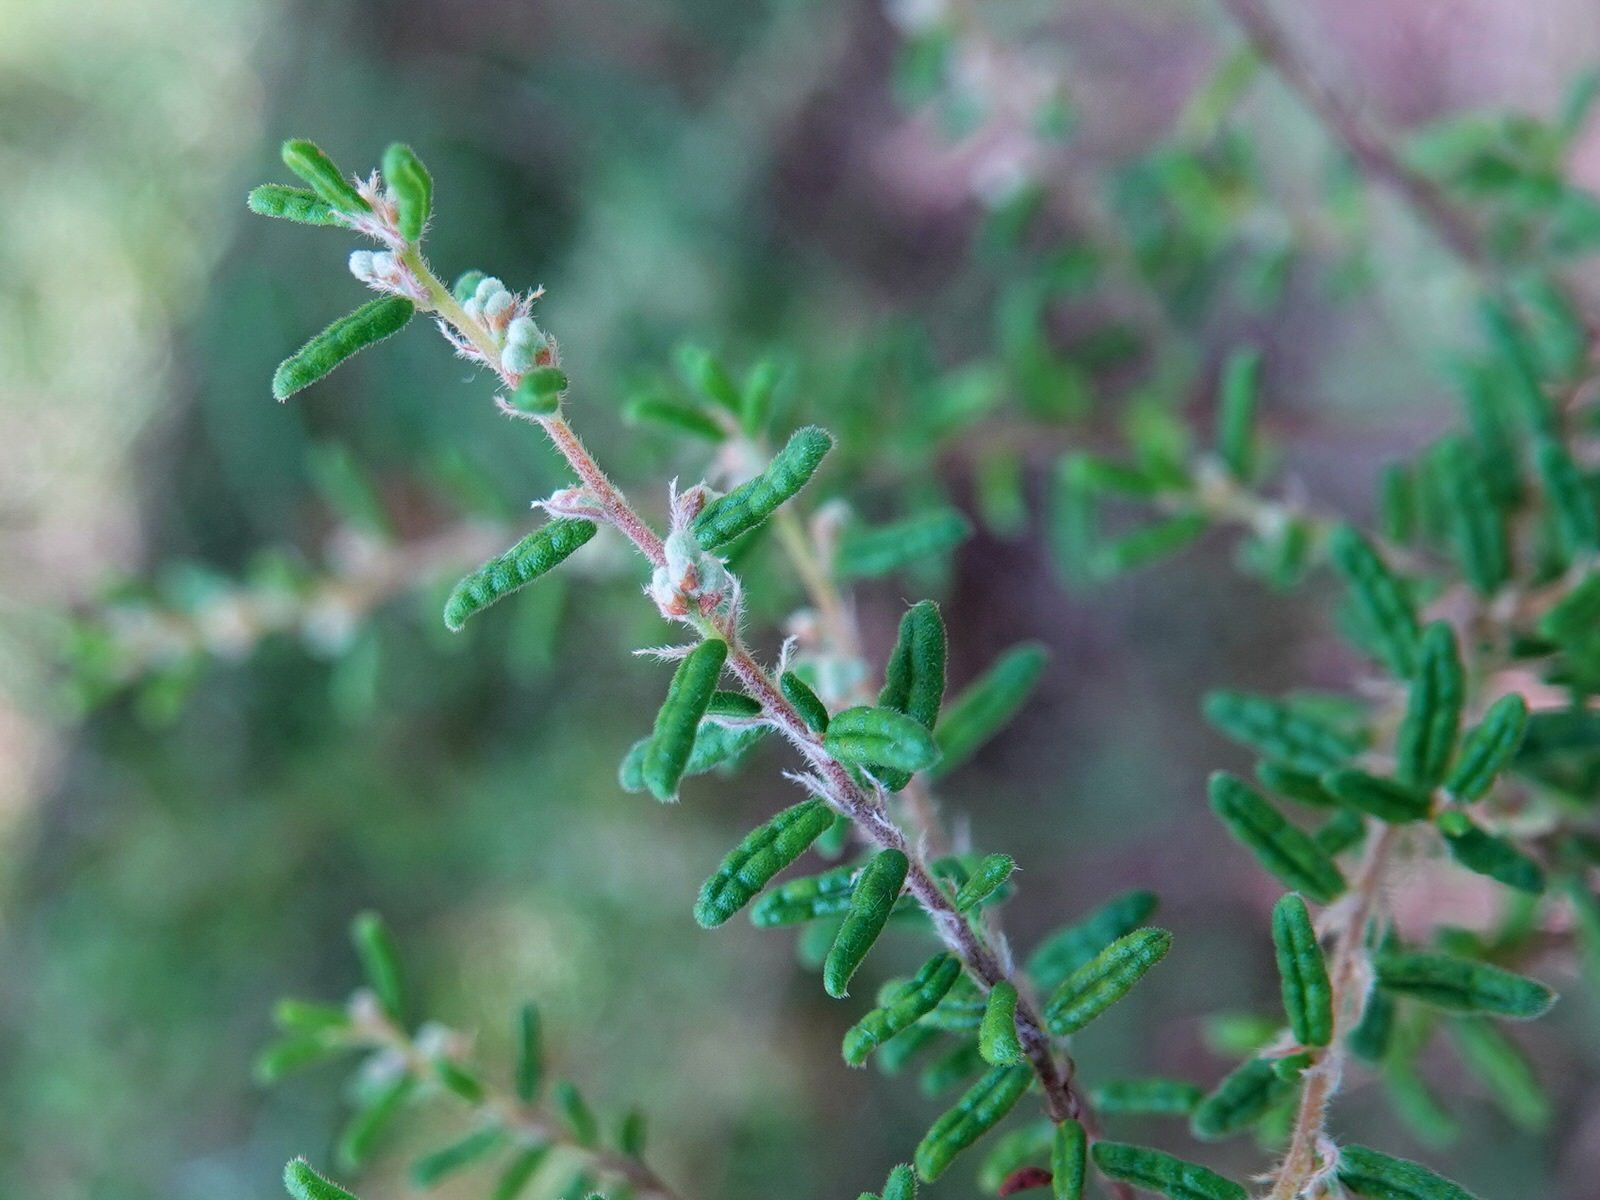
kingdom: Plantae
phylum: Tracheophyta
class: Magnoliopsida
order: Rosales
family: Rhamnaceae
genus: Pomaderris
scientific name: Pomaderris amoena
